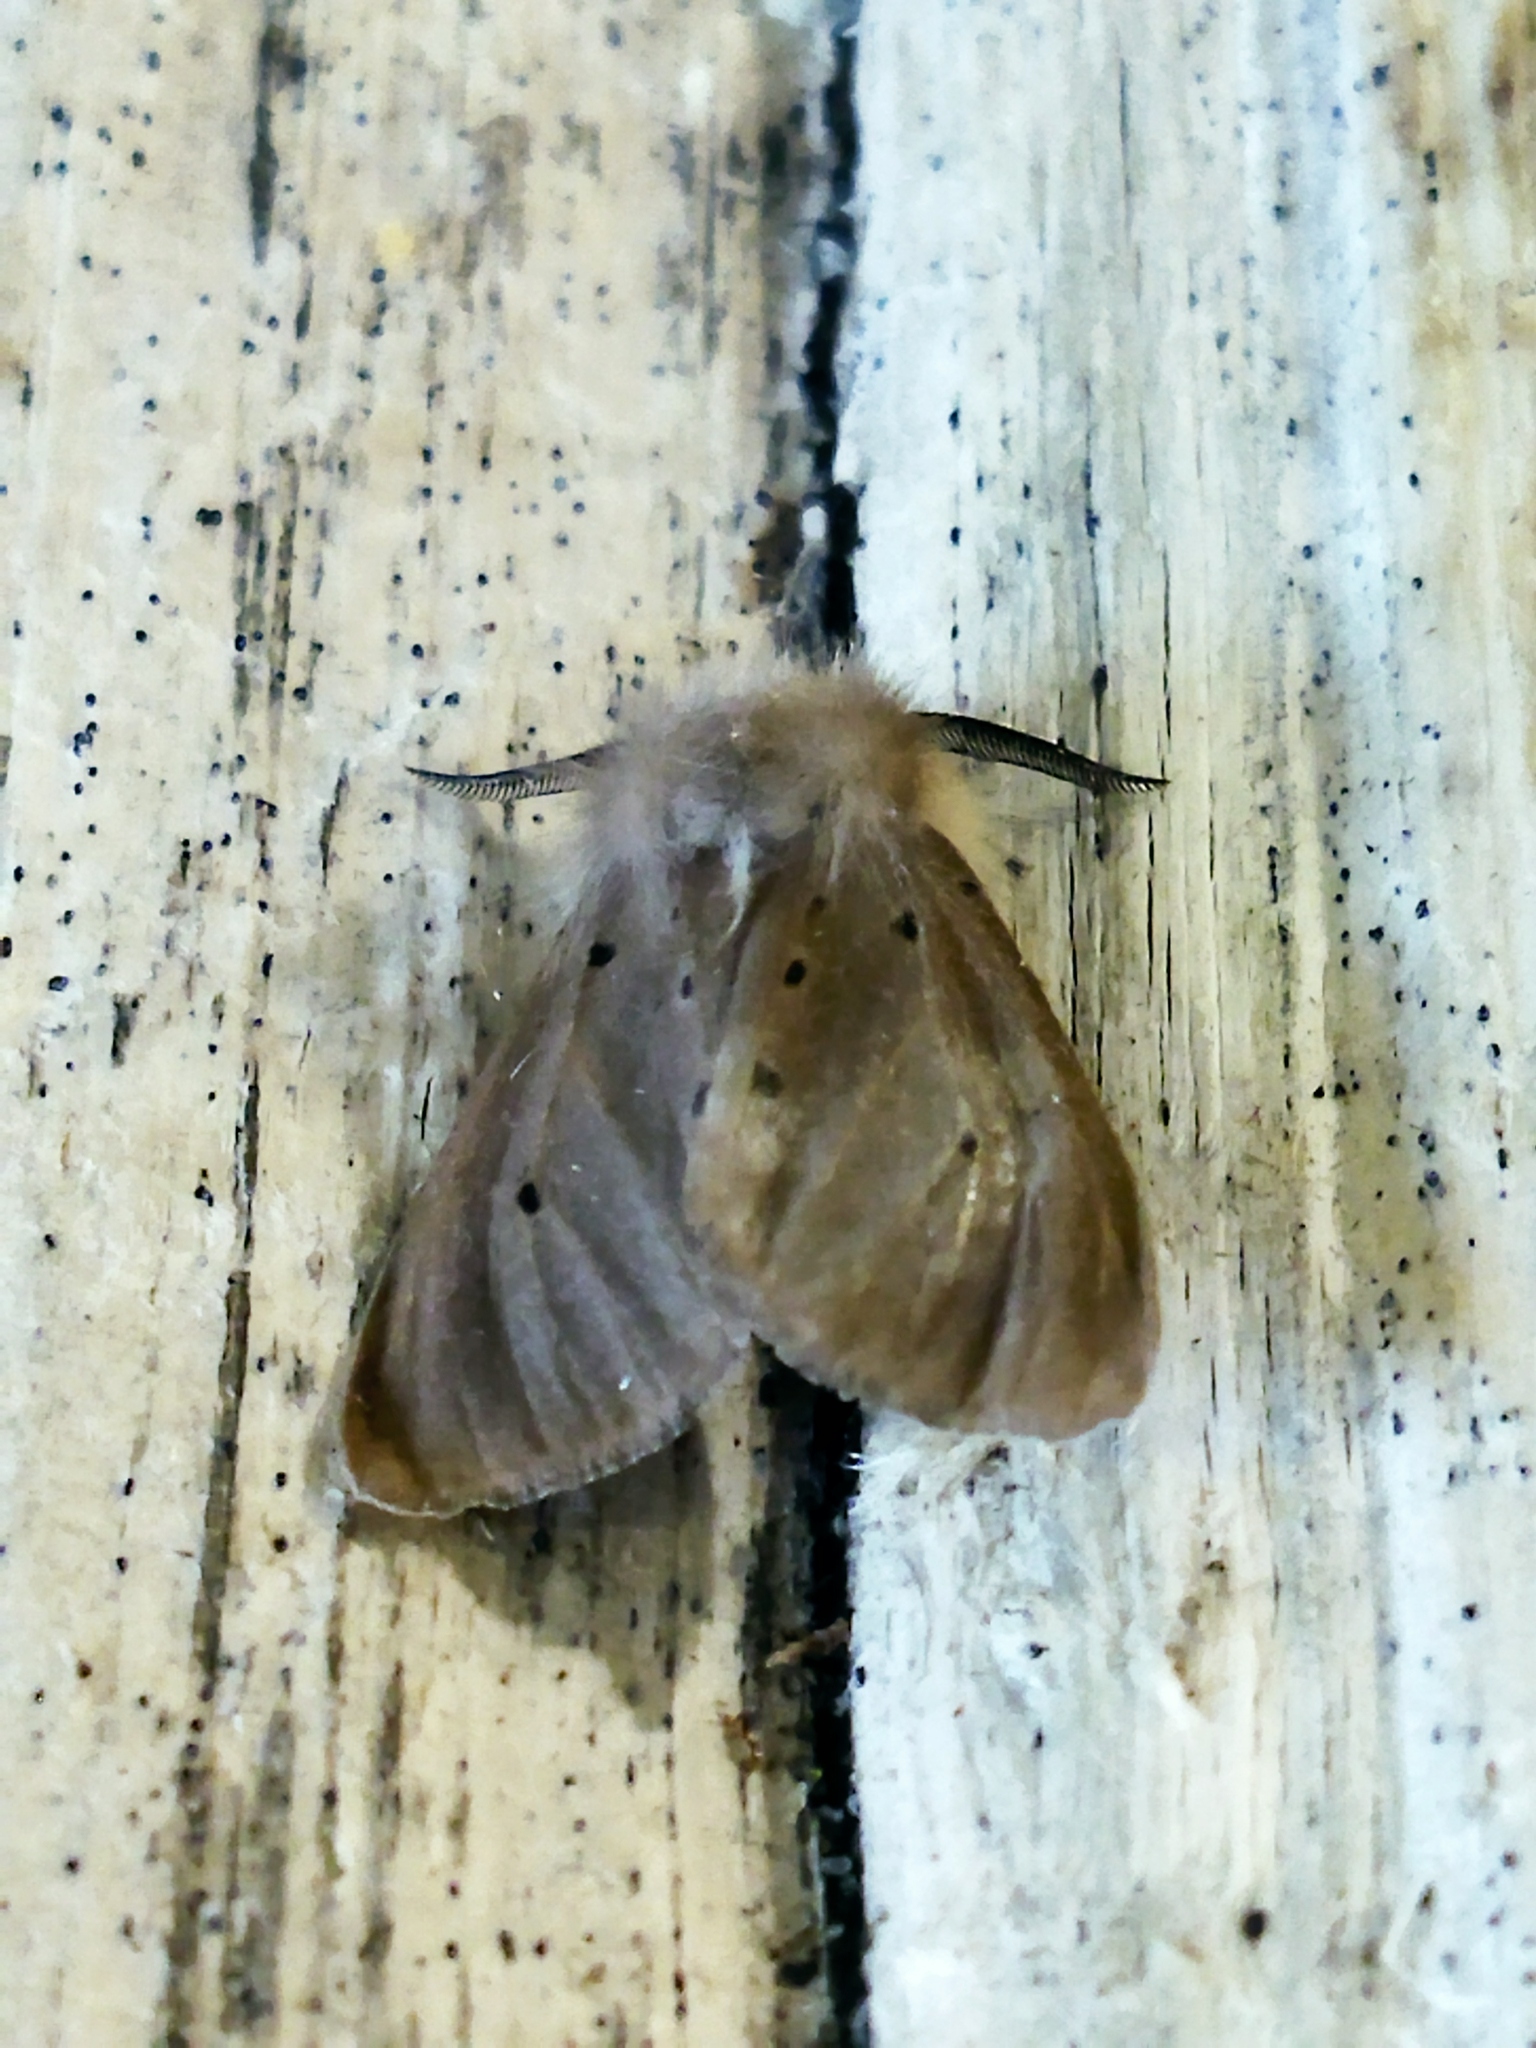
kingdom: Animalia
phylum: Arthropoda
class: Insecta
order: Lepidoptera
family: Erebidae
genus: Diaphora
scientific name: Diaphora mendica
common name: Muslin moth
